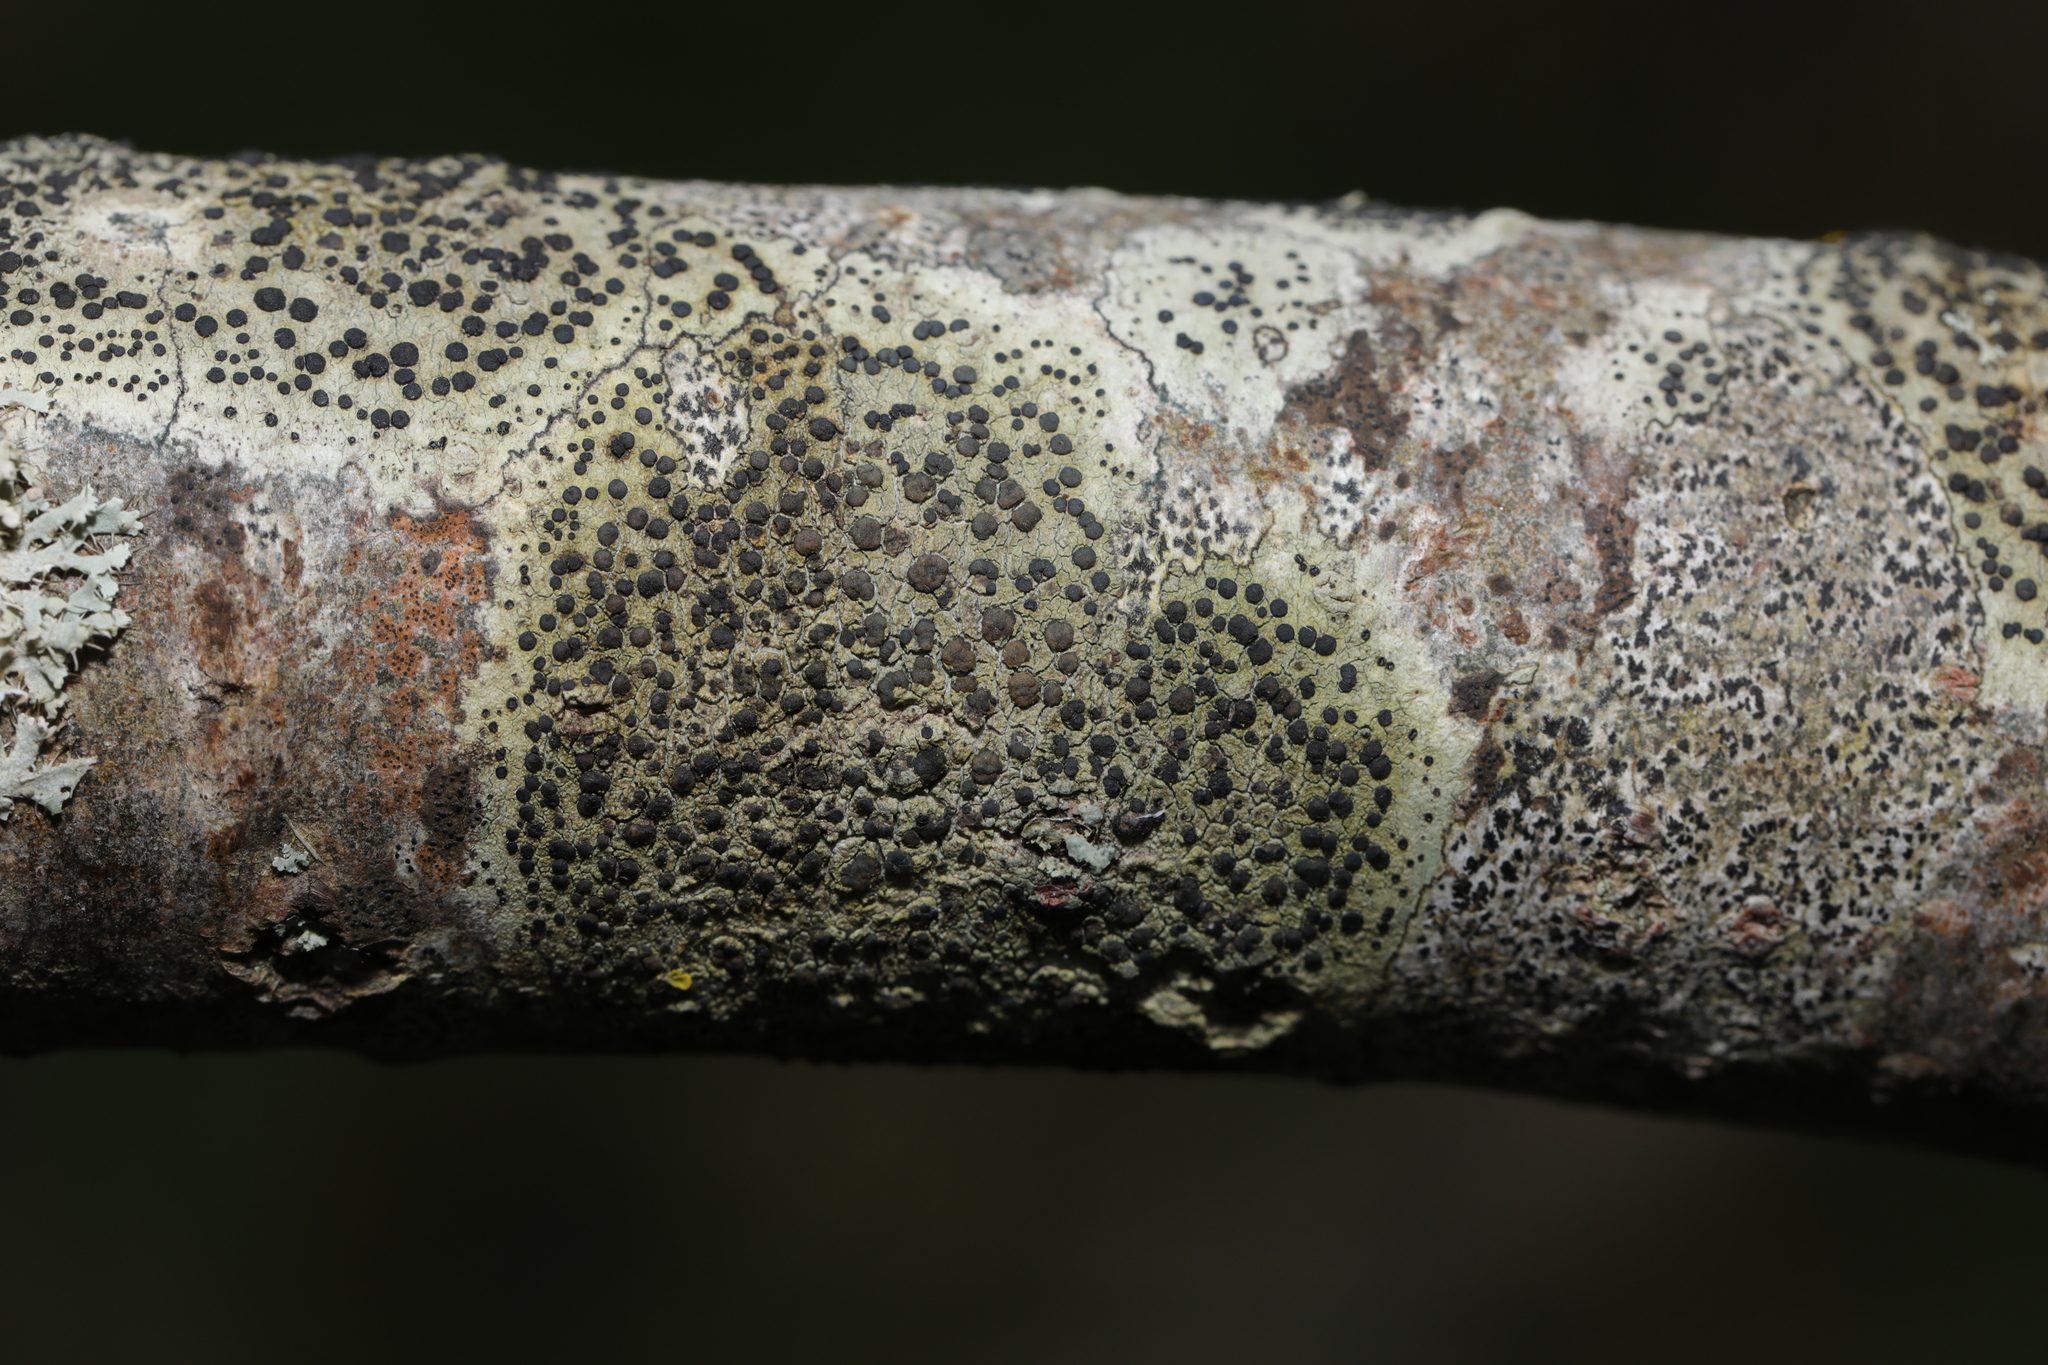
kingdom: Fungi
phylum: Ascomycota
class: Lecanoromycetes
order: Lecanorales
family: Lecanoraceae
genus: Lecidella
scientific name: Lecidella elaeochroma
